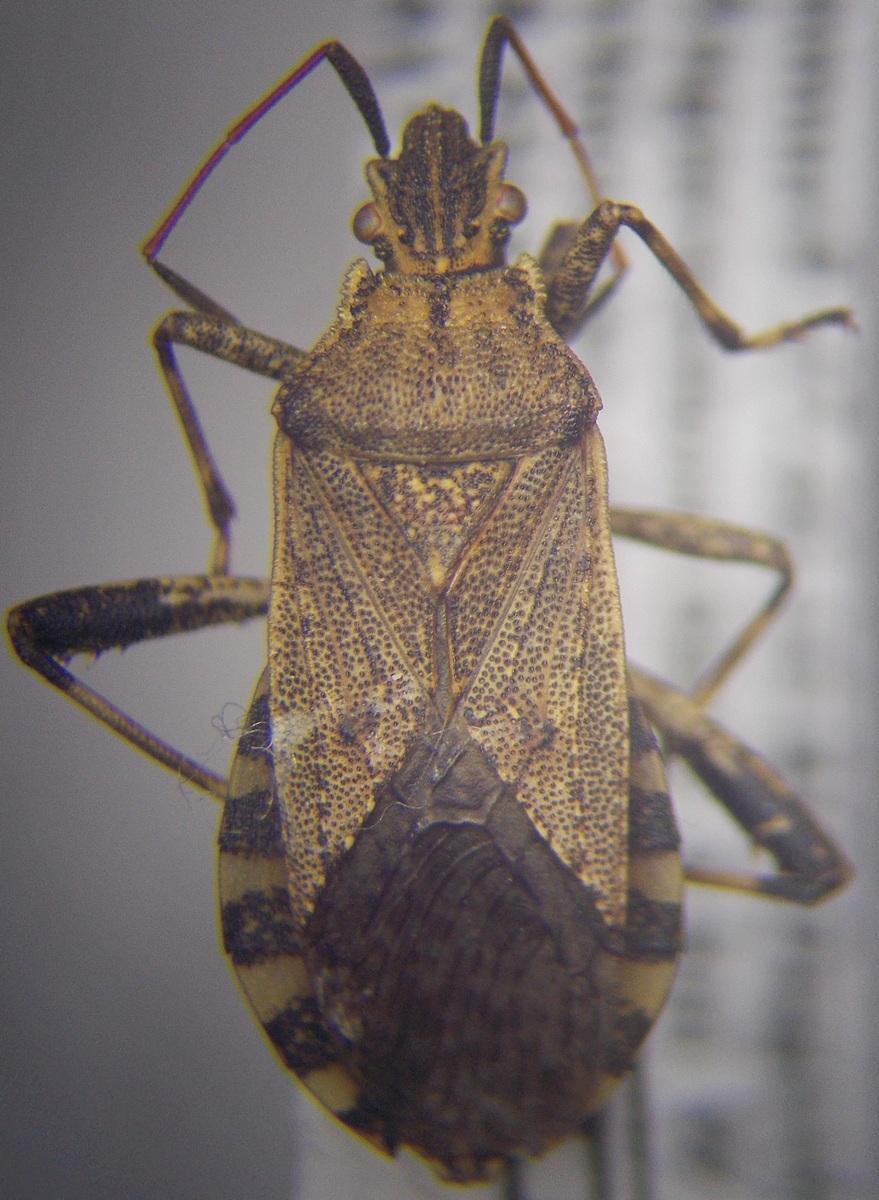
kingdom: Animalia
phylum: Arthropoda
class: Insecta
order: Hemiptera
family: Coreidae
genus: Ceraleptus
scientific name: Ceraleptus gracilicornis
